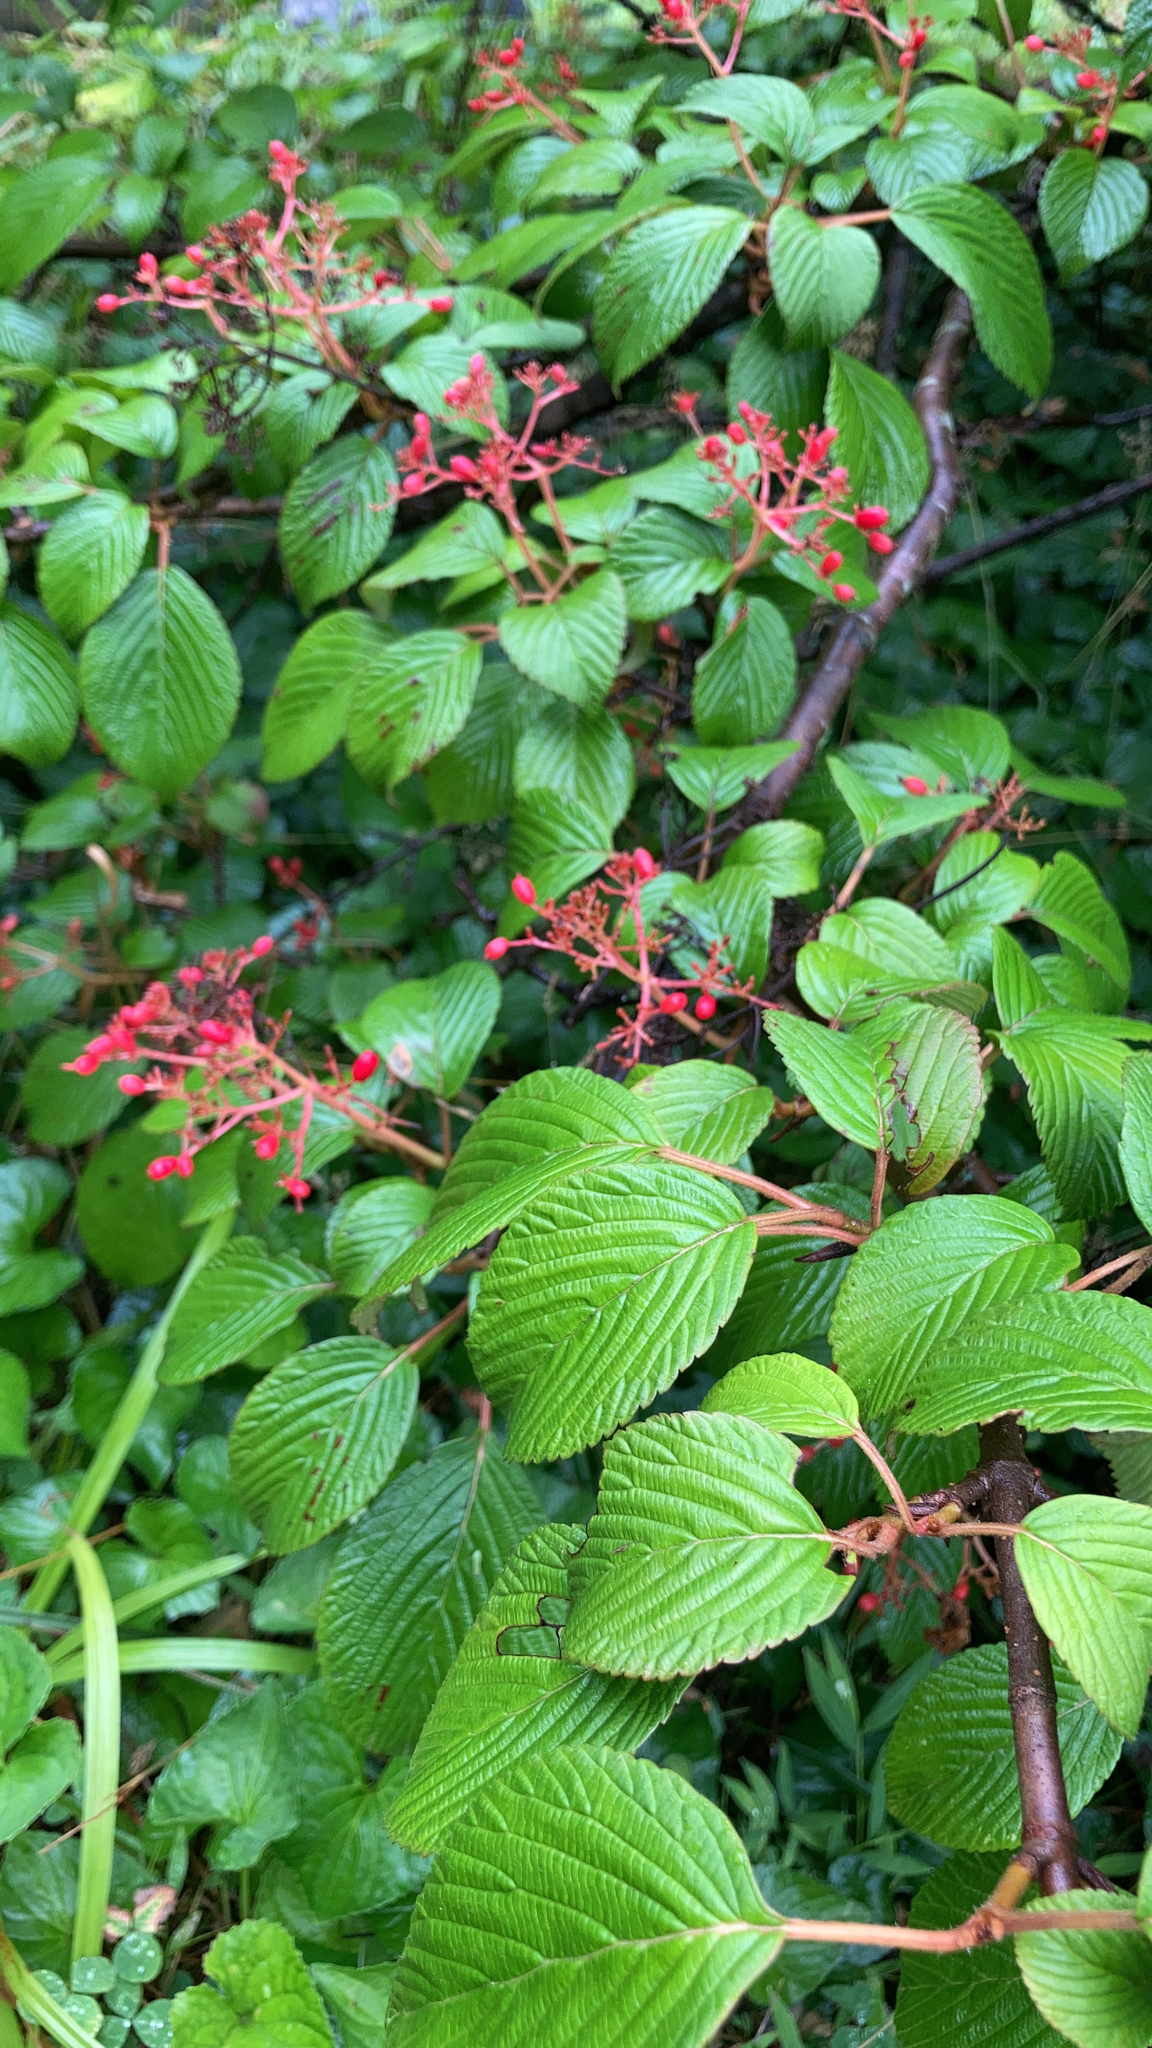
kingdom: Plantae
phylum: Tracheophyta
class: Magnoliopsida
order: Dipsacales
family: Viburnaceae
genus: Viburnum
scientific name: Viburnum plicatum
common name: Japanese snowball
